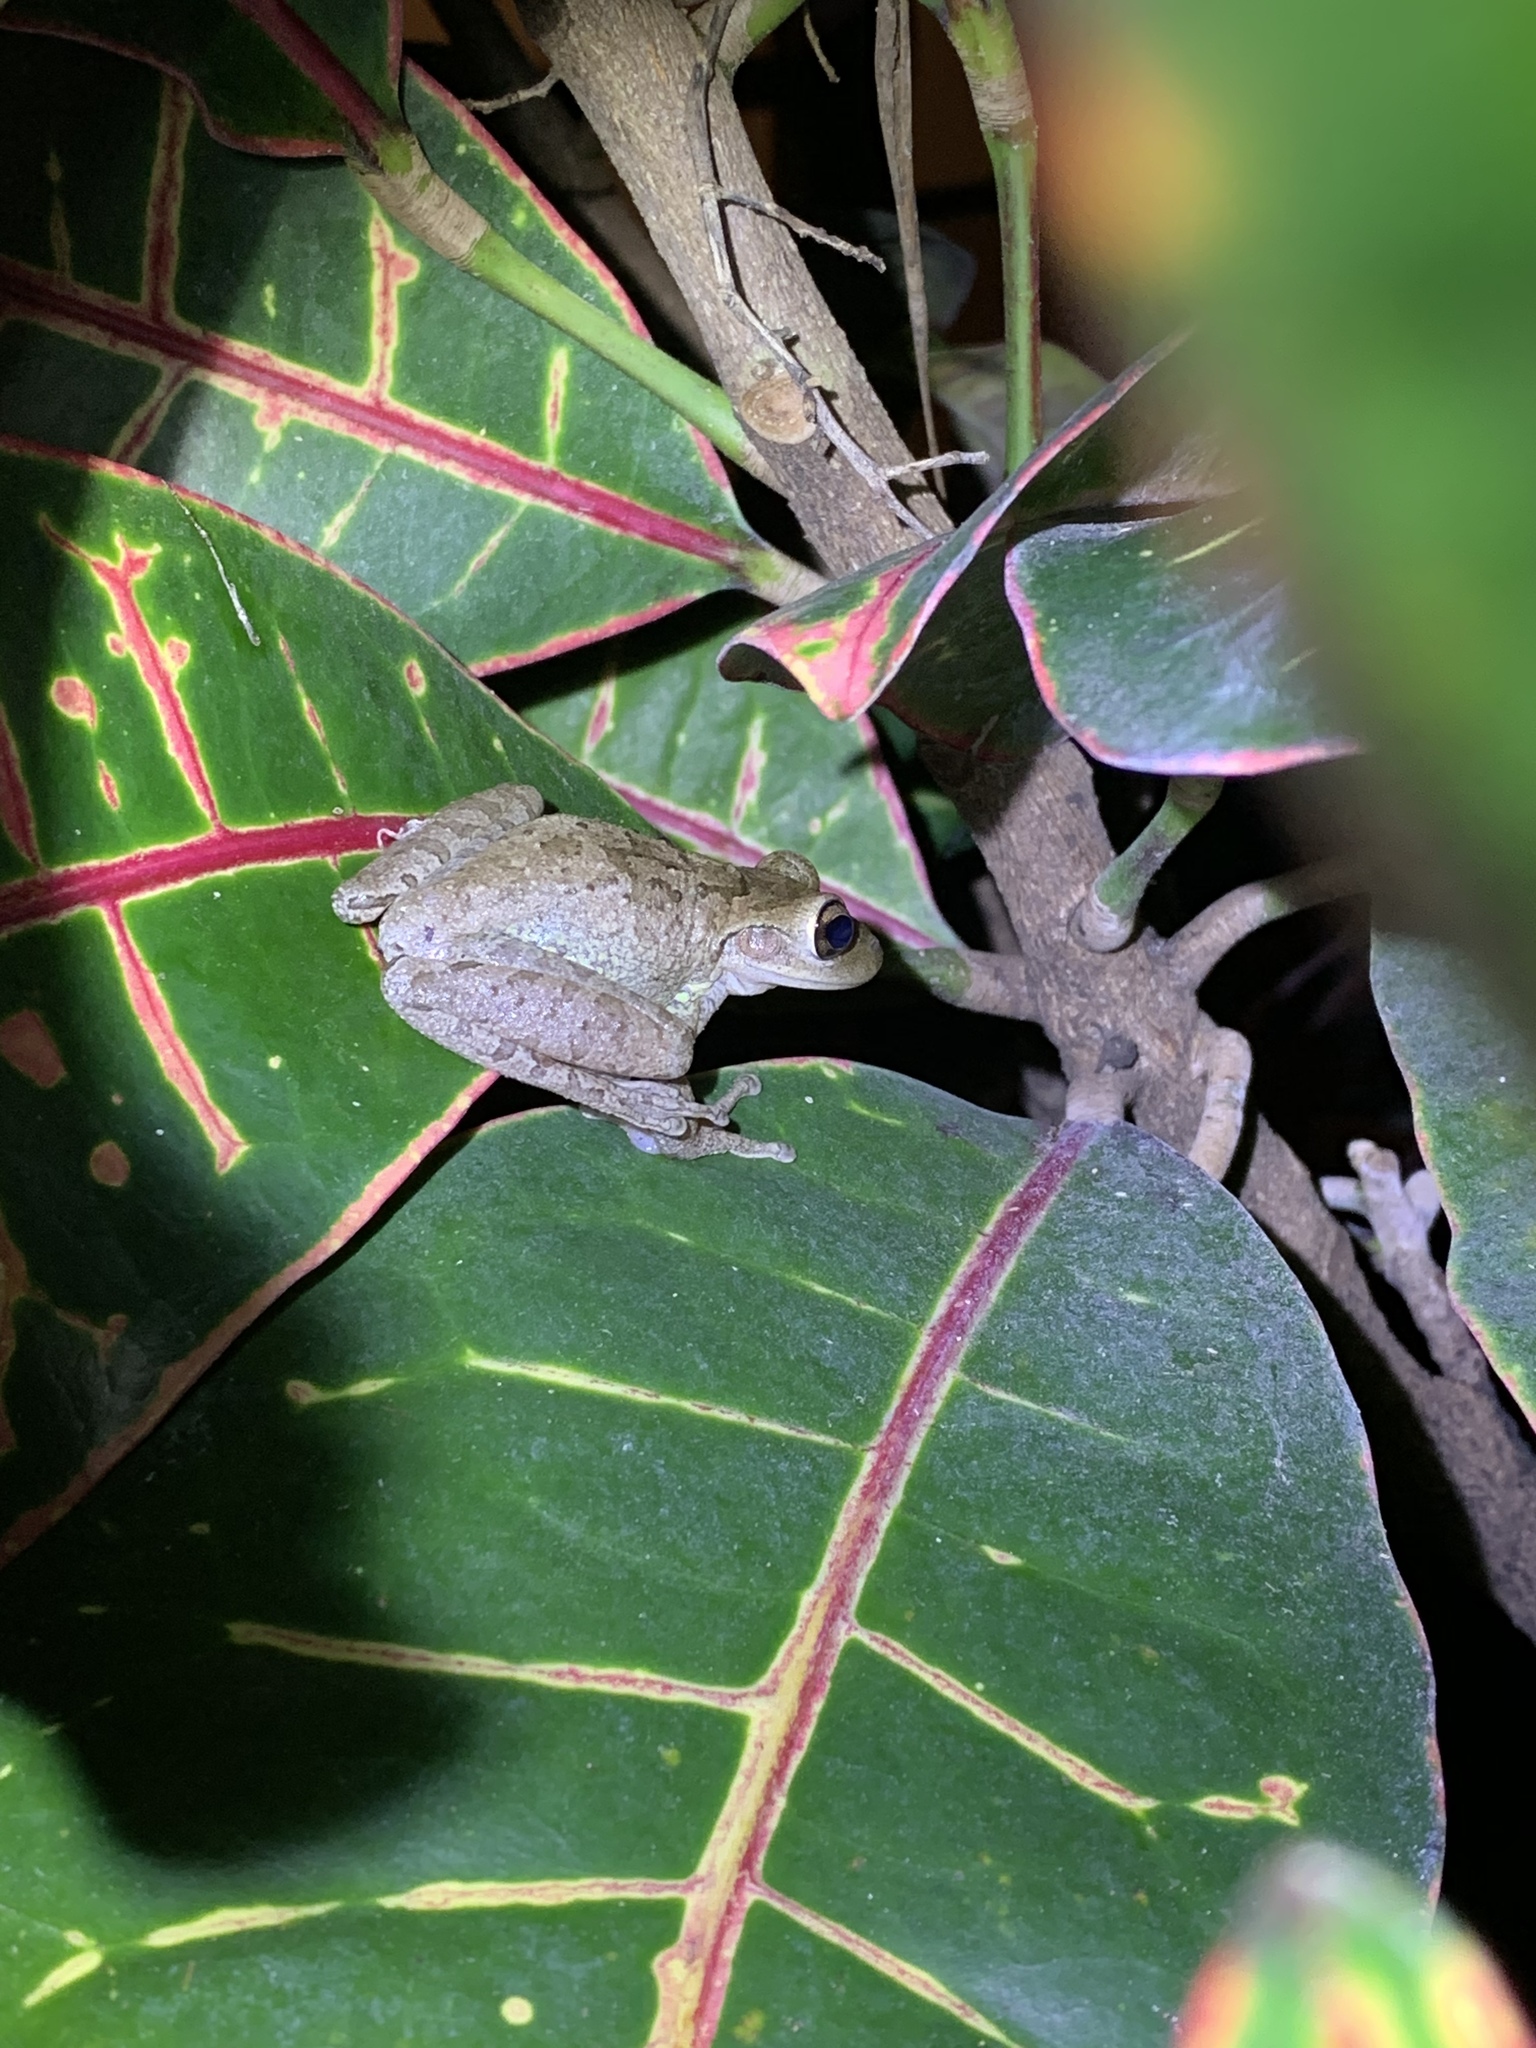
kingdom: Animalia
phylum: Chordata
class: Amphibia
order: Anura
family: Hylidae
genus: Osteopilus
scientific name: Osteopilus septentrionalis
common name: Cuban treefrog
